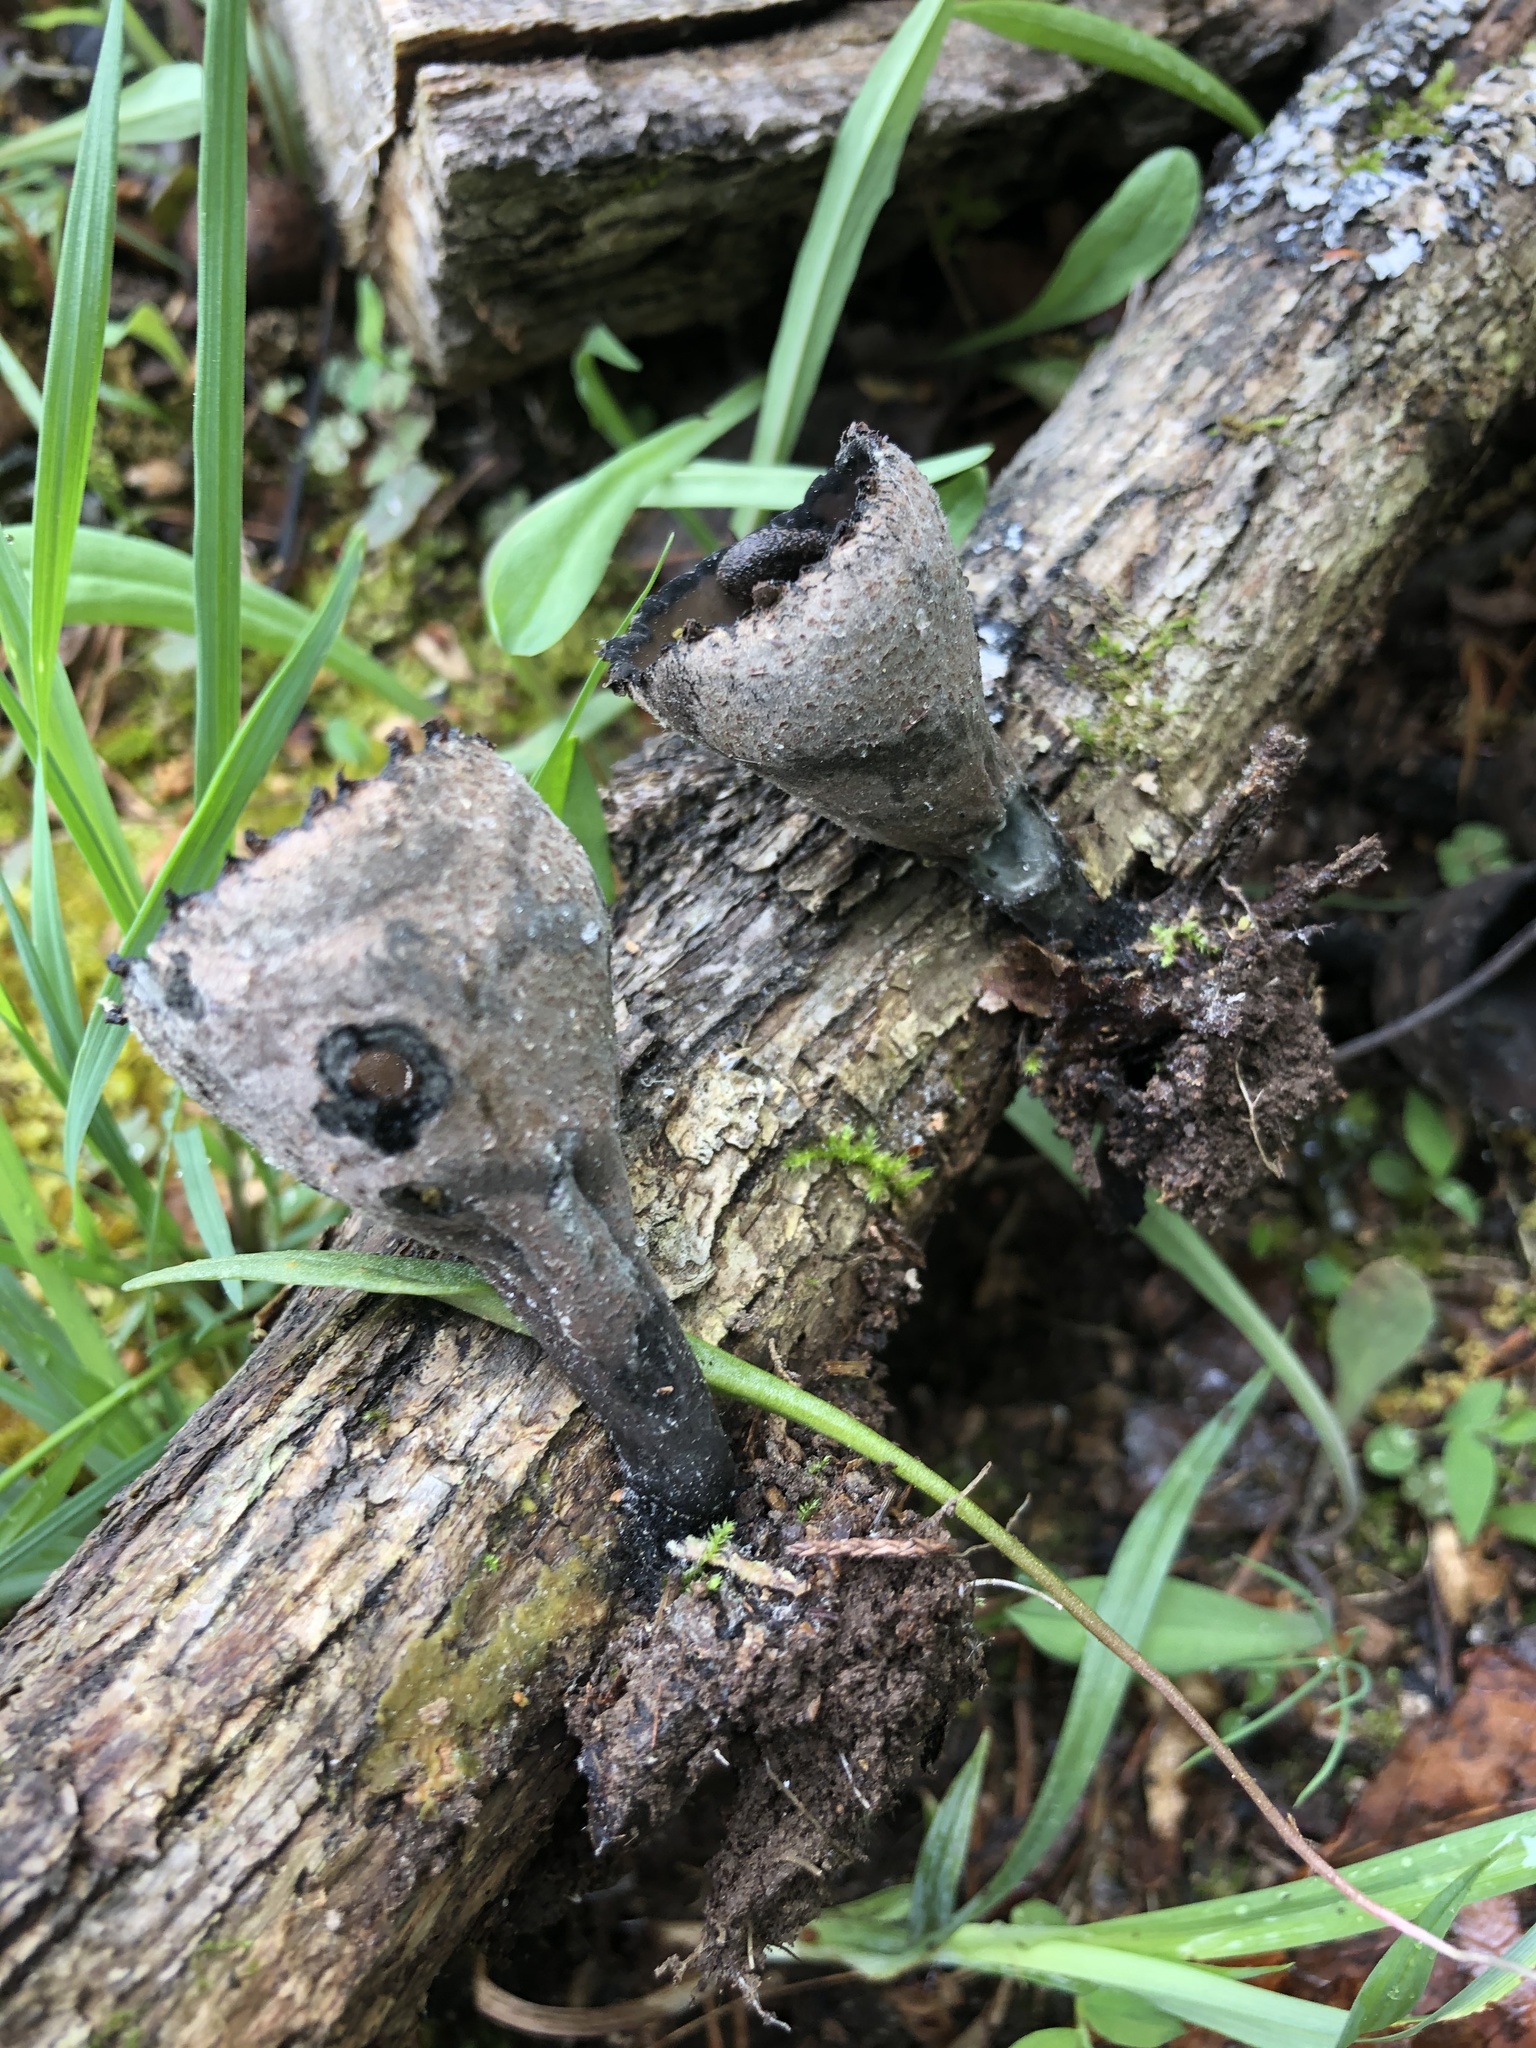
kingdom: Fungi
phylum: Ascomycota
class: Pezizomycetes
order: Pezizales
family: Sarcosomataceae
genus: Urnula
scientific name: Urnula craterium
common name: Devil's urn
